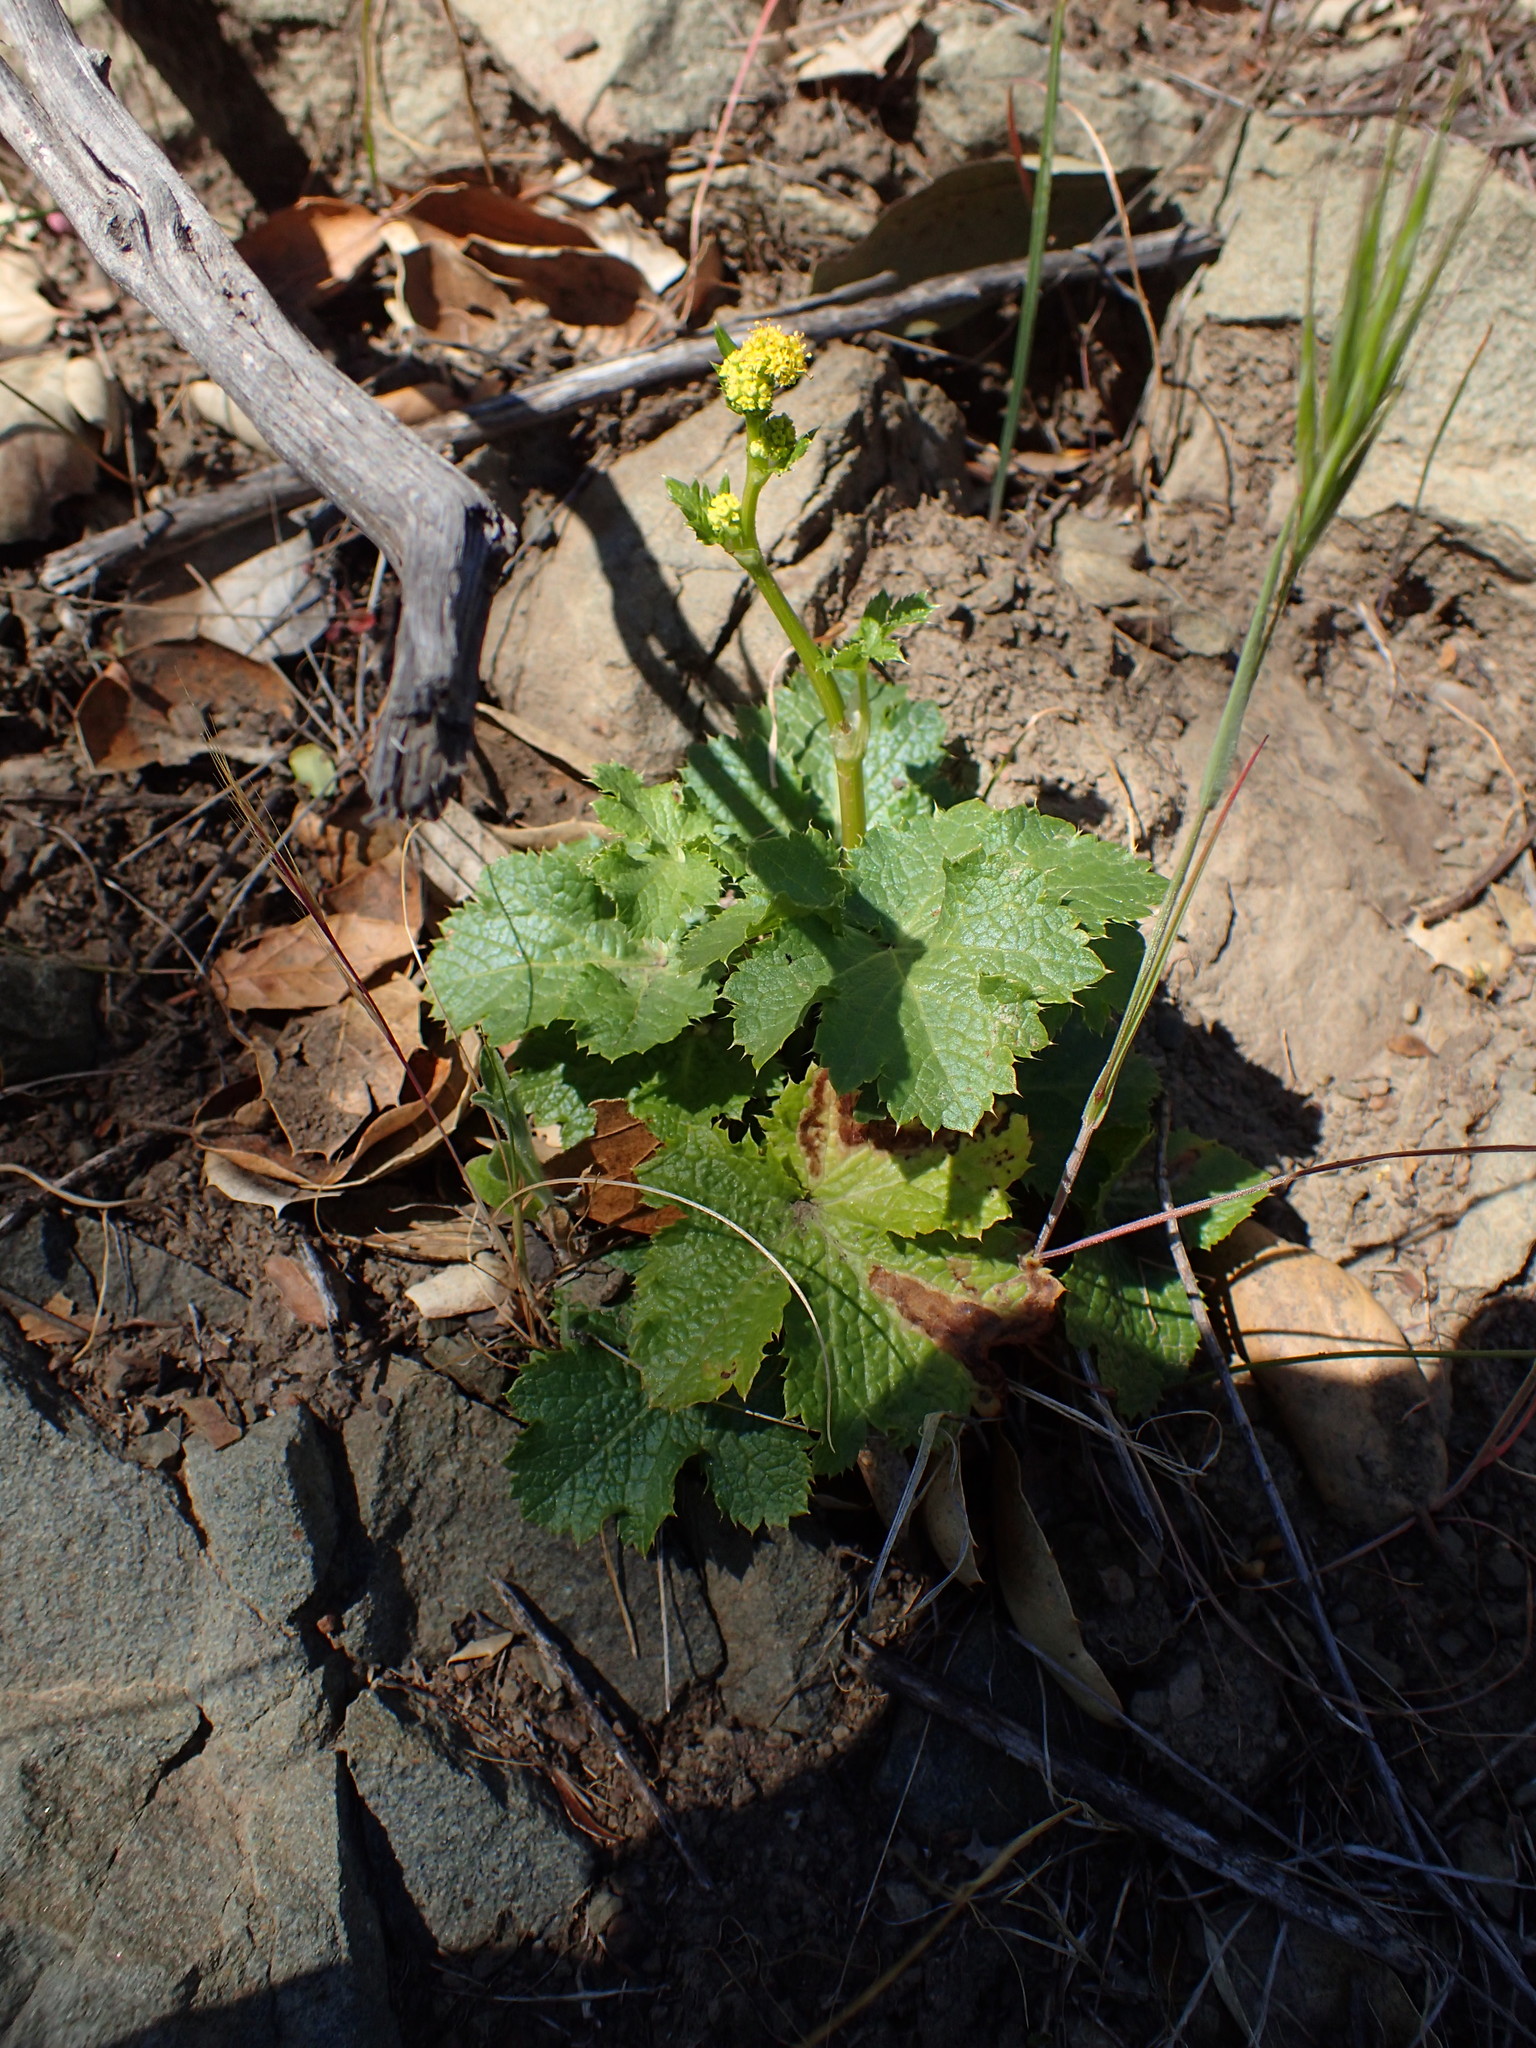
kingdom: Plantae
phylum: Tracheophyta
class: Magnoliopsida
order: Apiales
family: Apiaceae
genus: Sanicula
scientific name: Sanicula crassicaulis
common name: Western snakeroot
